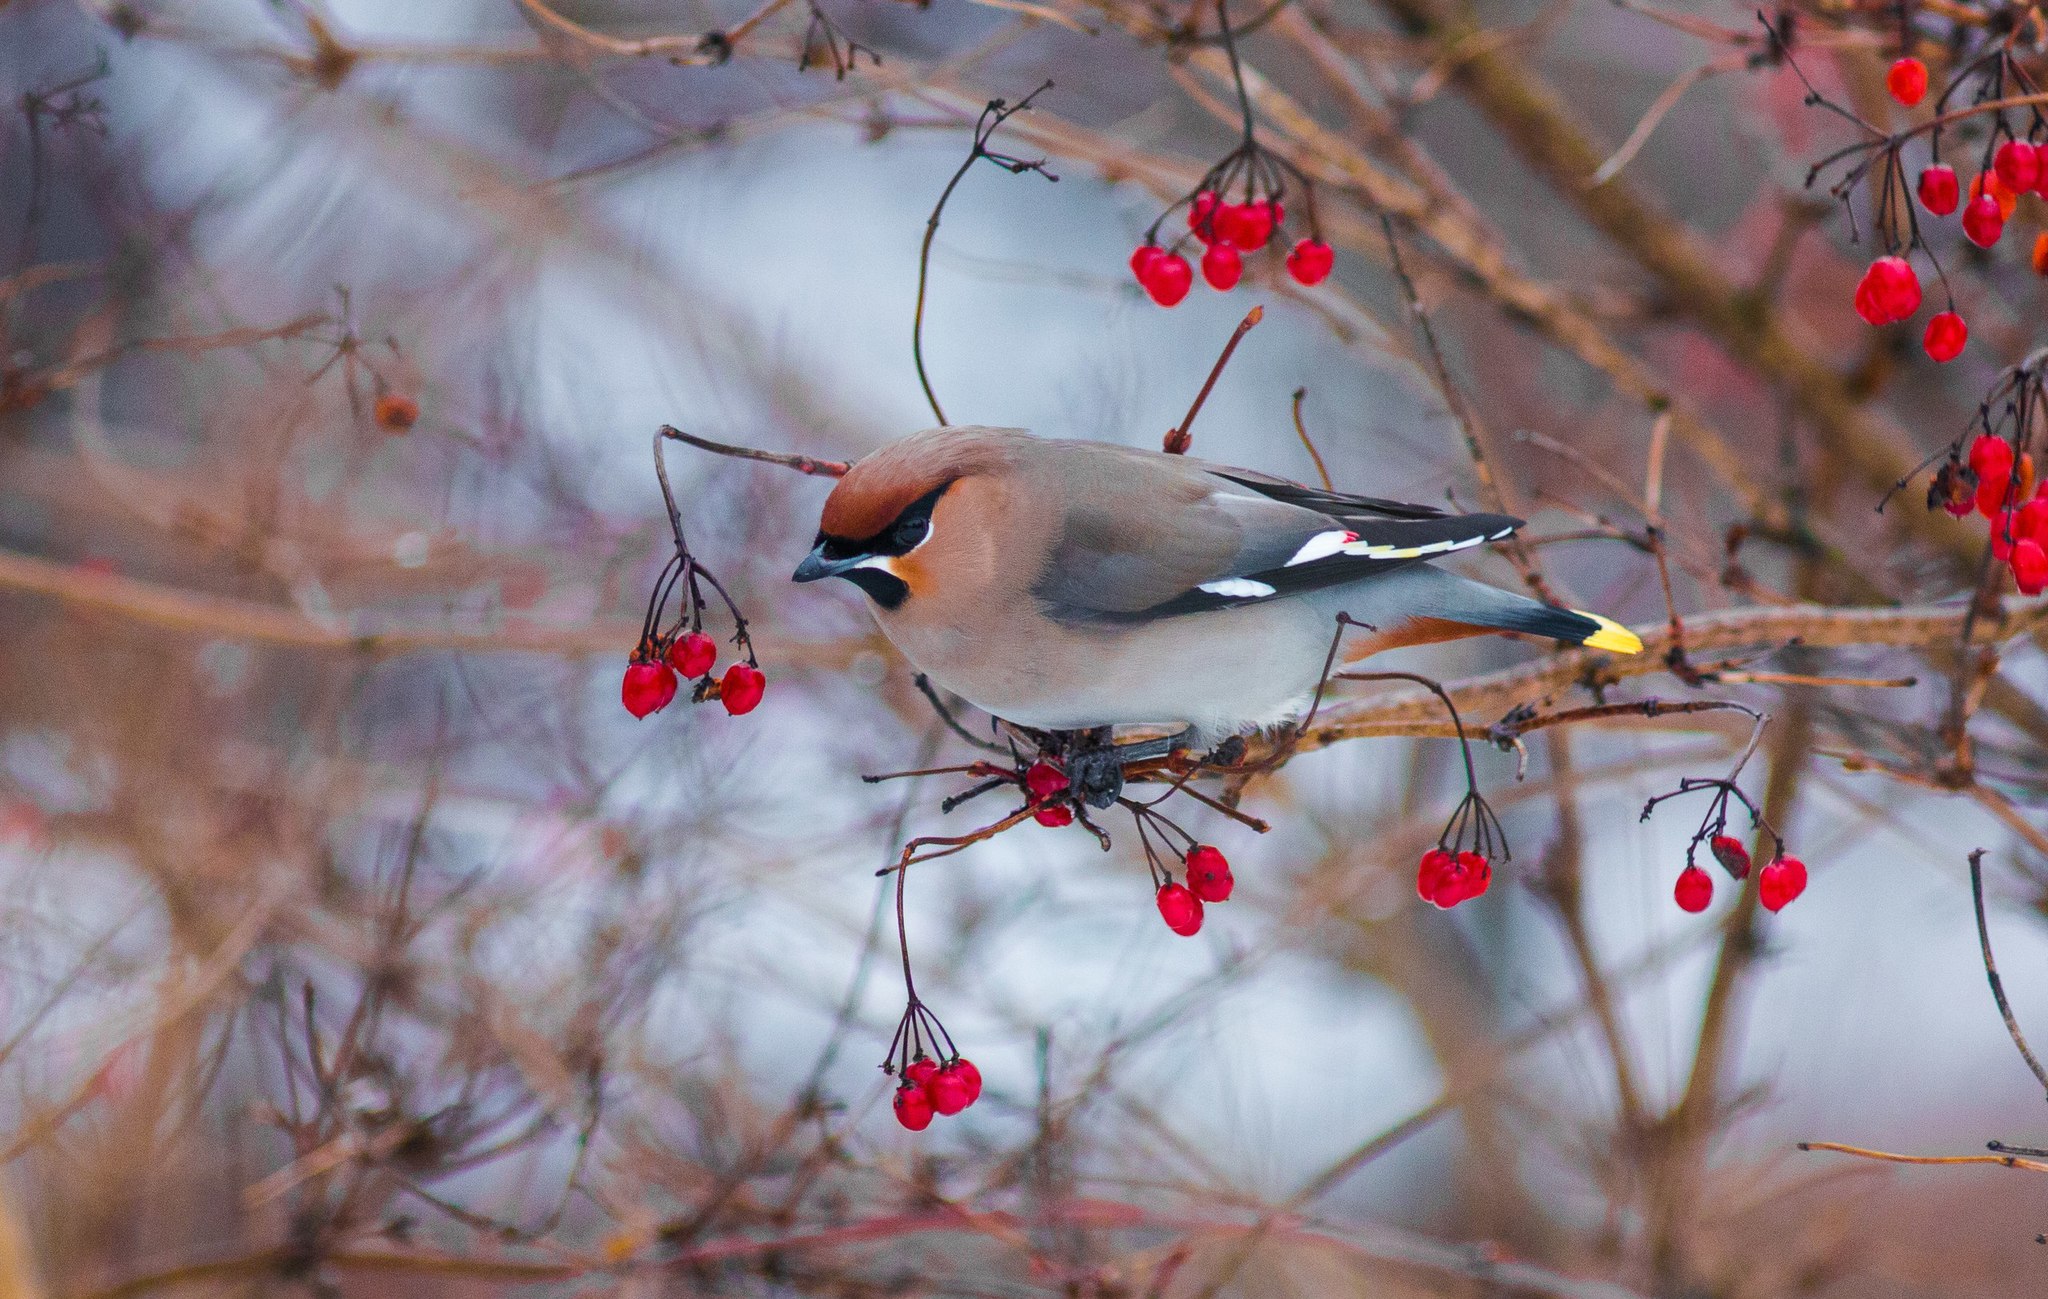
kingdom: Animalia
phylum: Chordata
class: Aves
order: Passeriformes
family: Bombycillidae
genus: Bombycilla
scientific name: Bombycilla garrulus
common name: Bohemian waxwing
